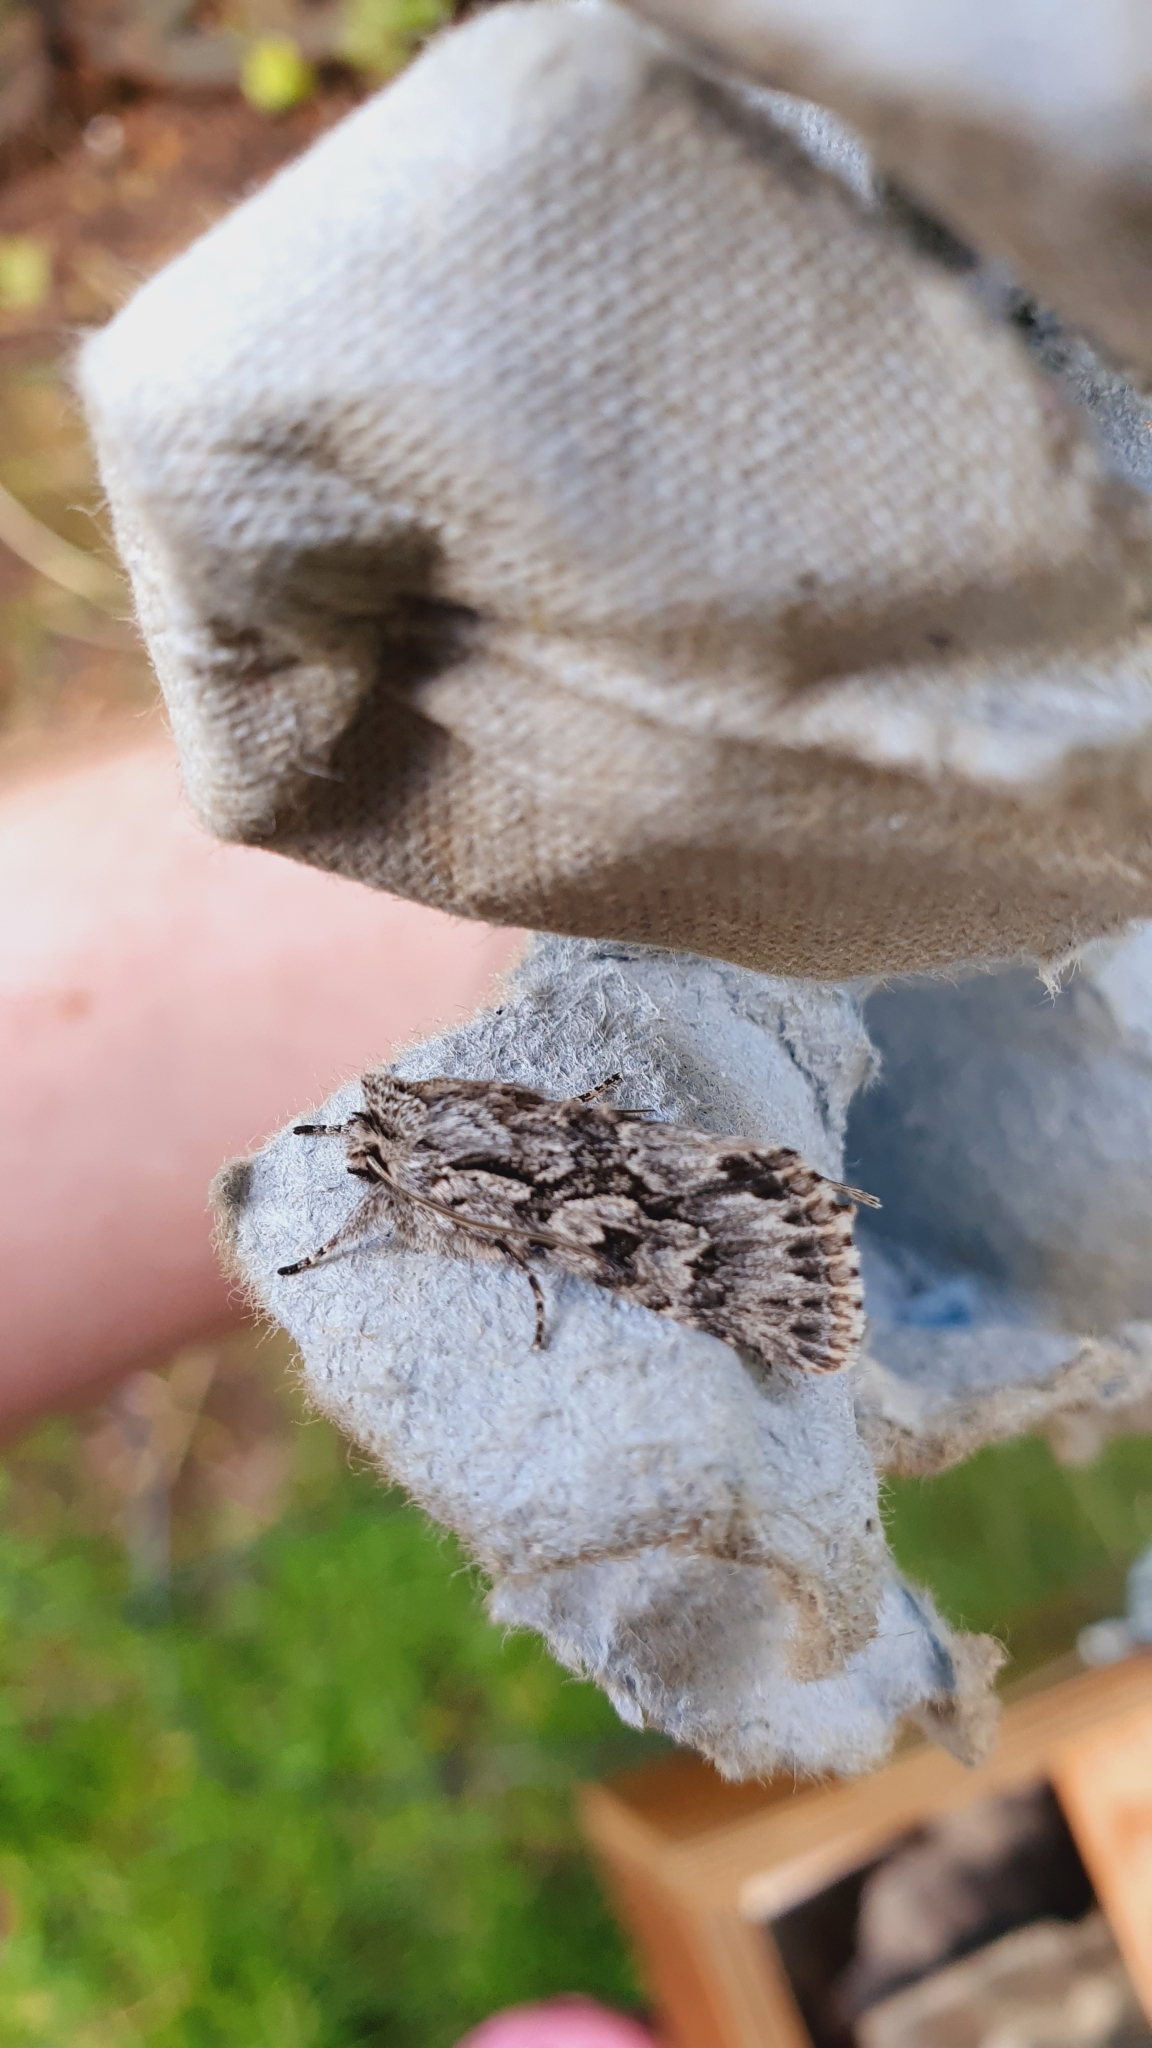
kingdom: Animalia
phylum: Arthropoda
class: Insecta
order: Lepidoptera
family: Noctuidae
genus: Xylocampa
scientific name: Xylocampa areola
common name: Early grey
